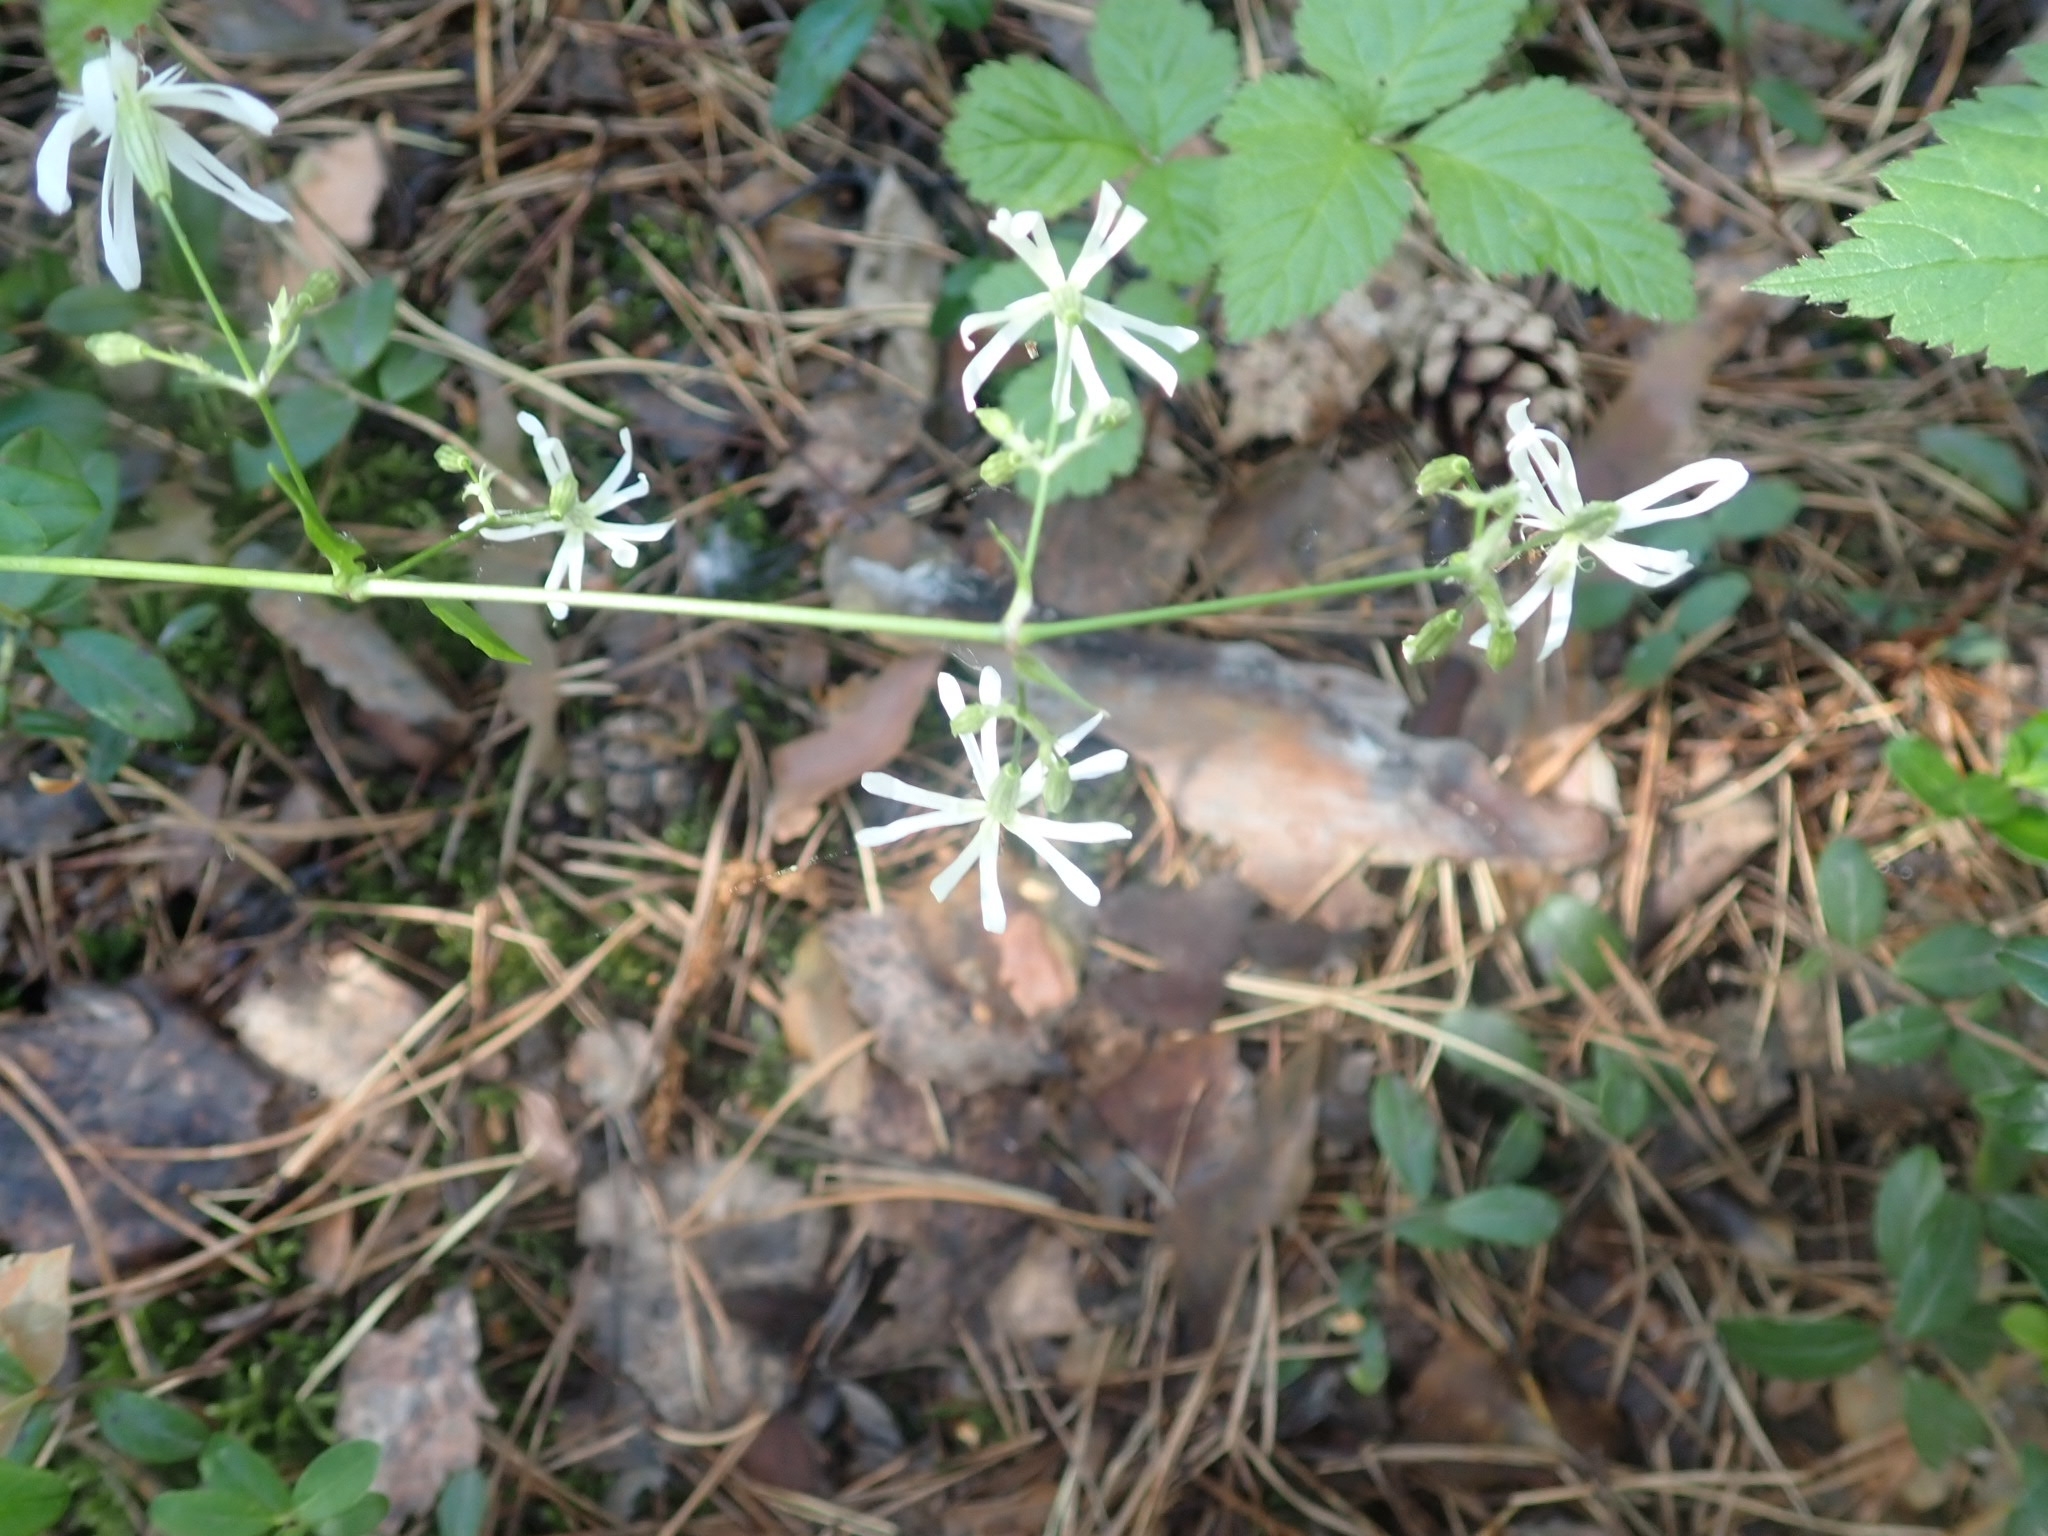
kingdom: Plantae
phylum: Tracheophyta
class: Magnoliopsida
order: Caryophyllales
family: Caryophyllaceae
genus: Silene
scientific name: Silene nutans
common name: Nottingham catchfly
